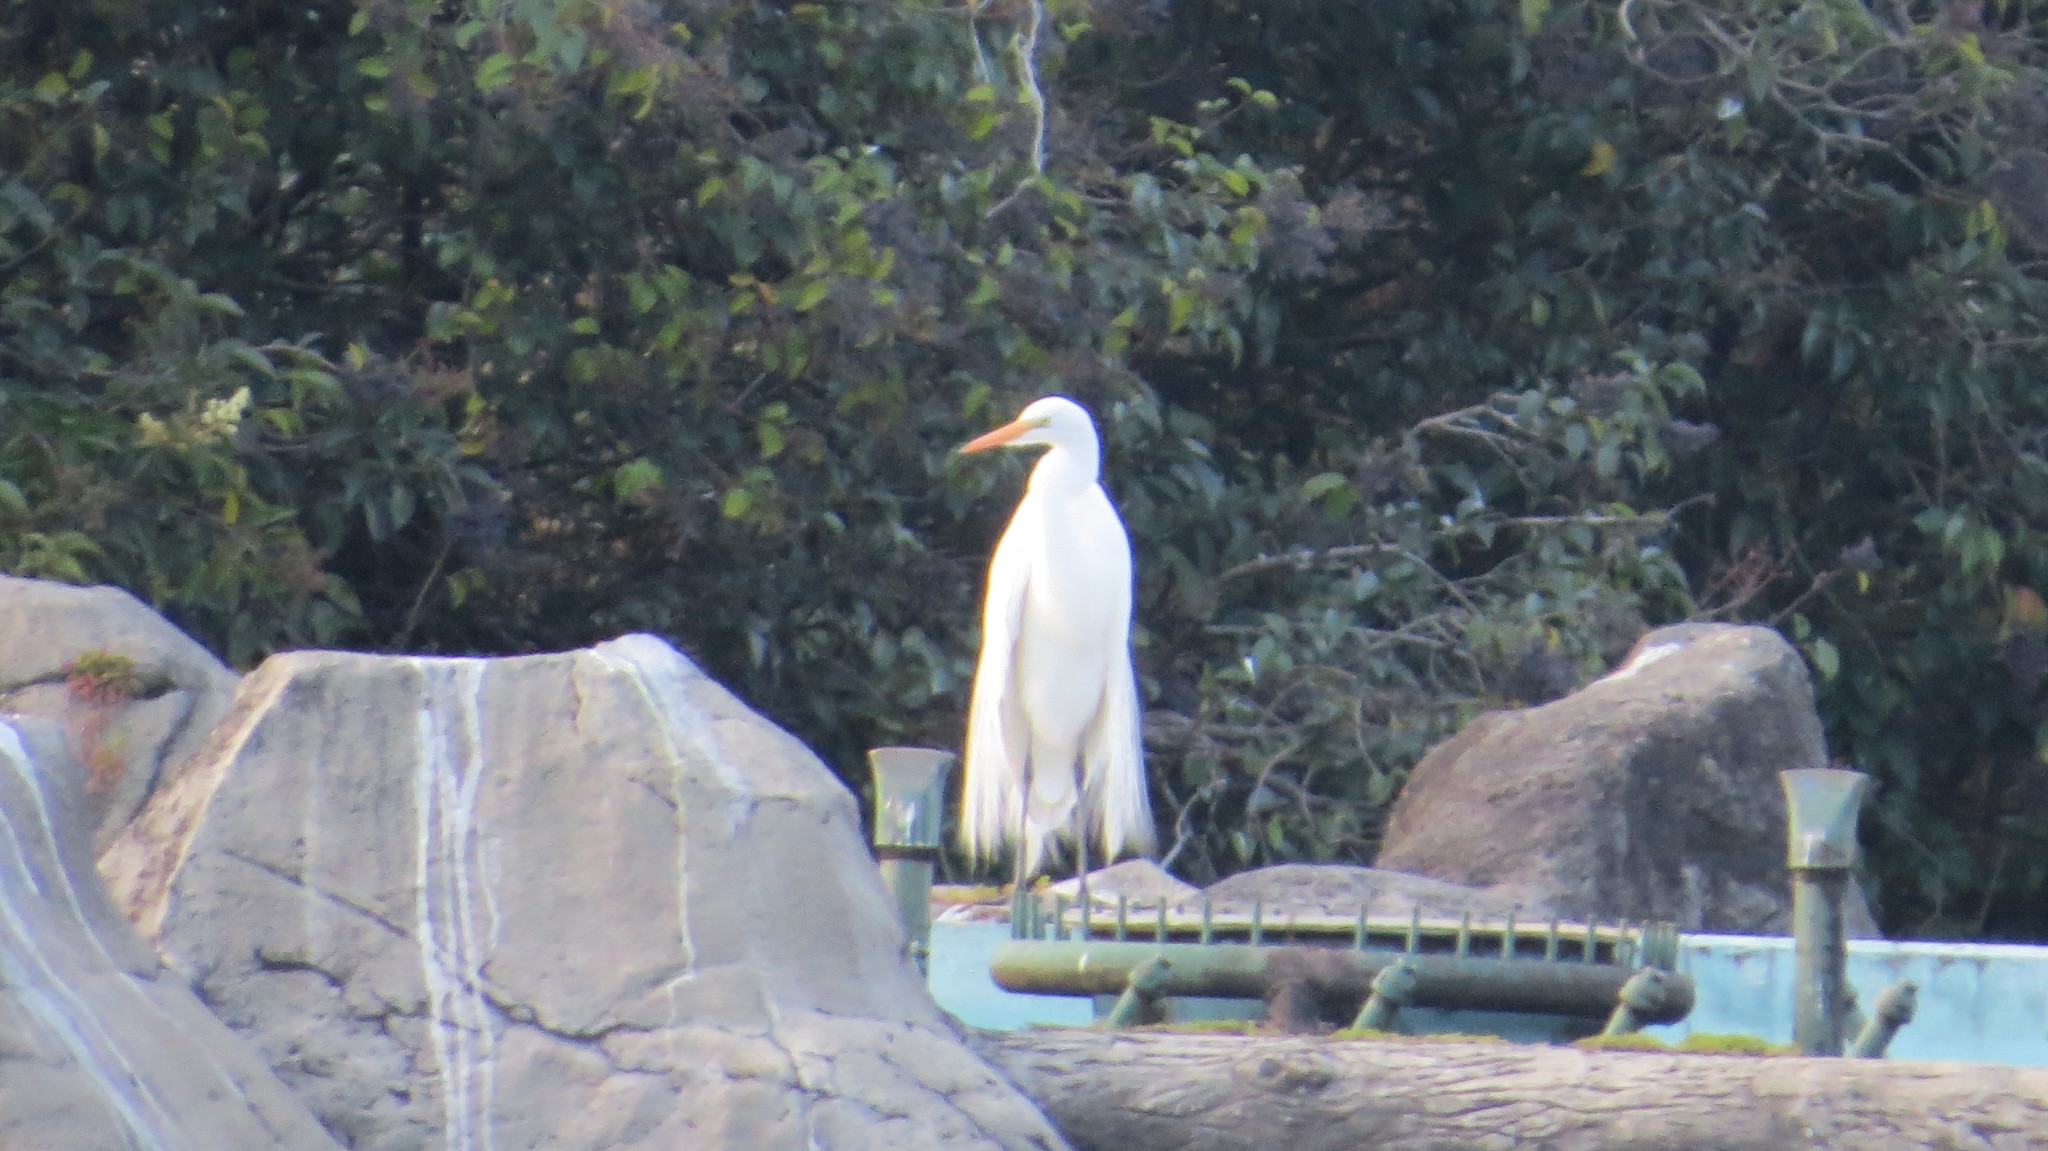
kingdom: Animalia
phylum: Chordata
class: Aves
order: Pelecaniformes
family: Ardeidae
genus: Ardea
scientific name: Ardea alba
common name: Great egret
